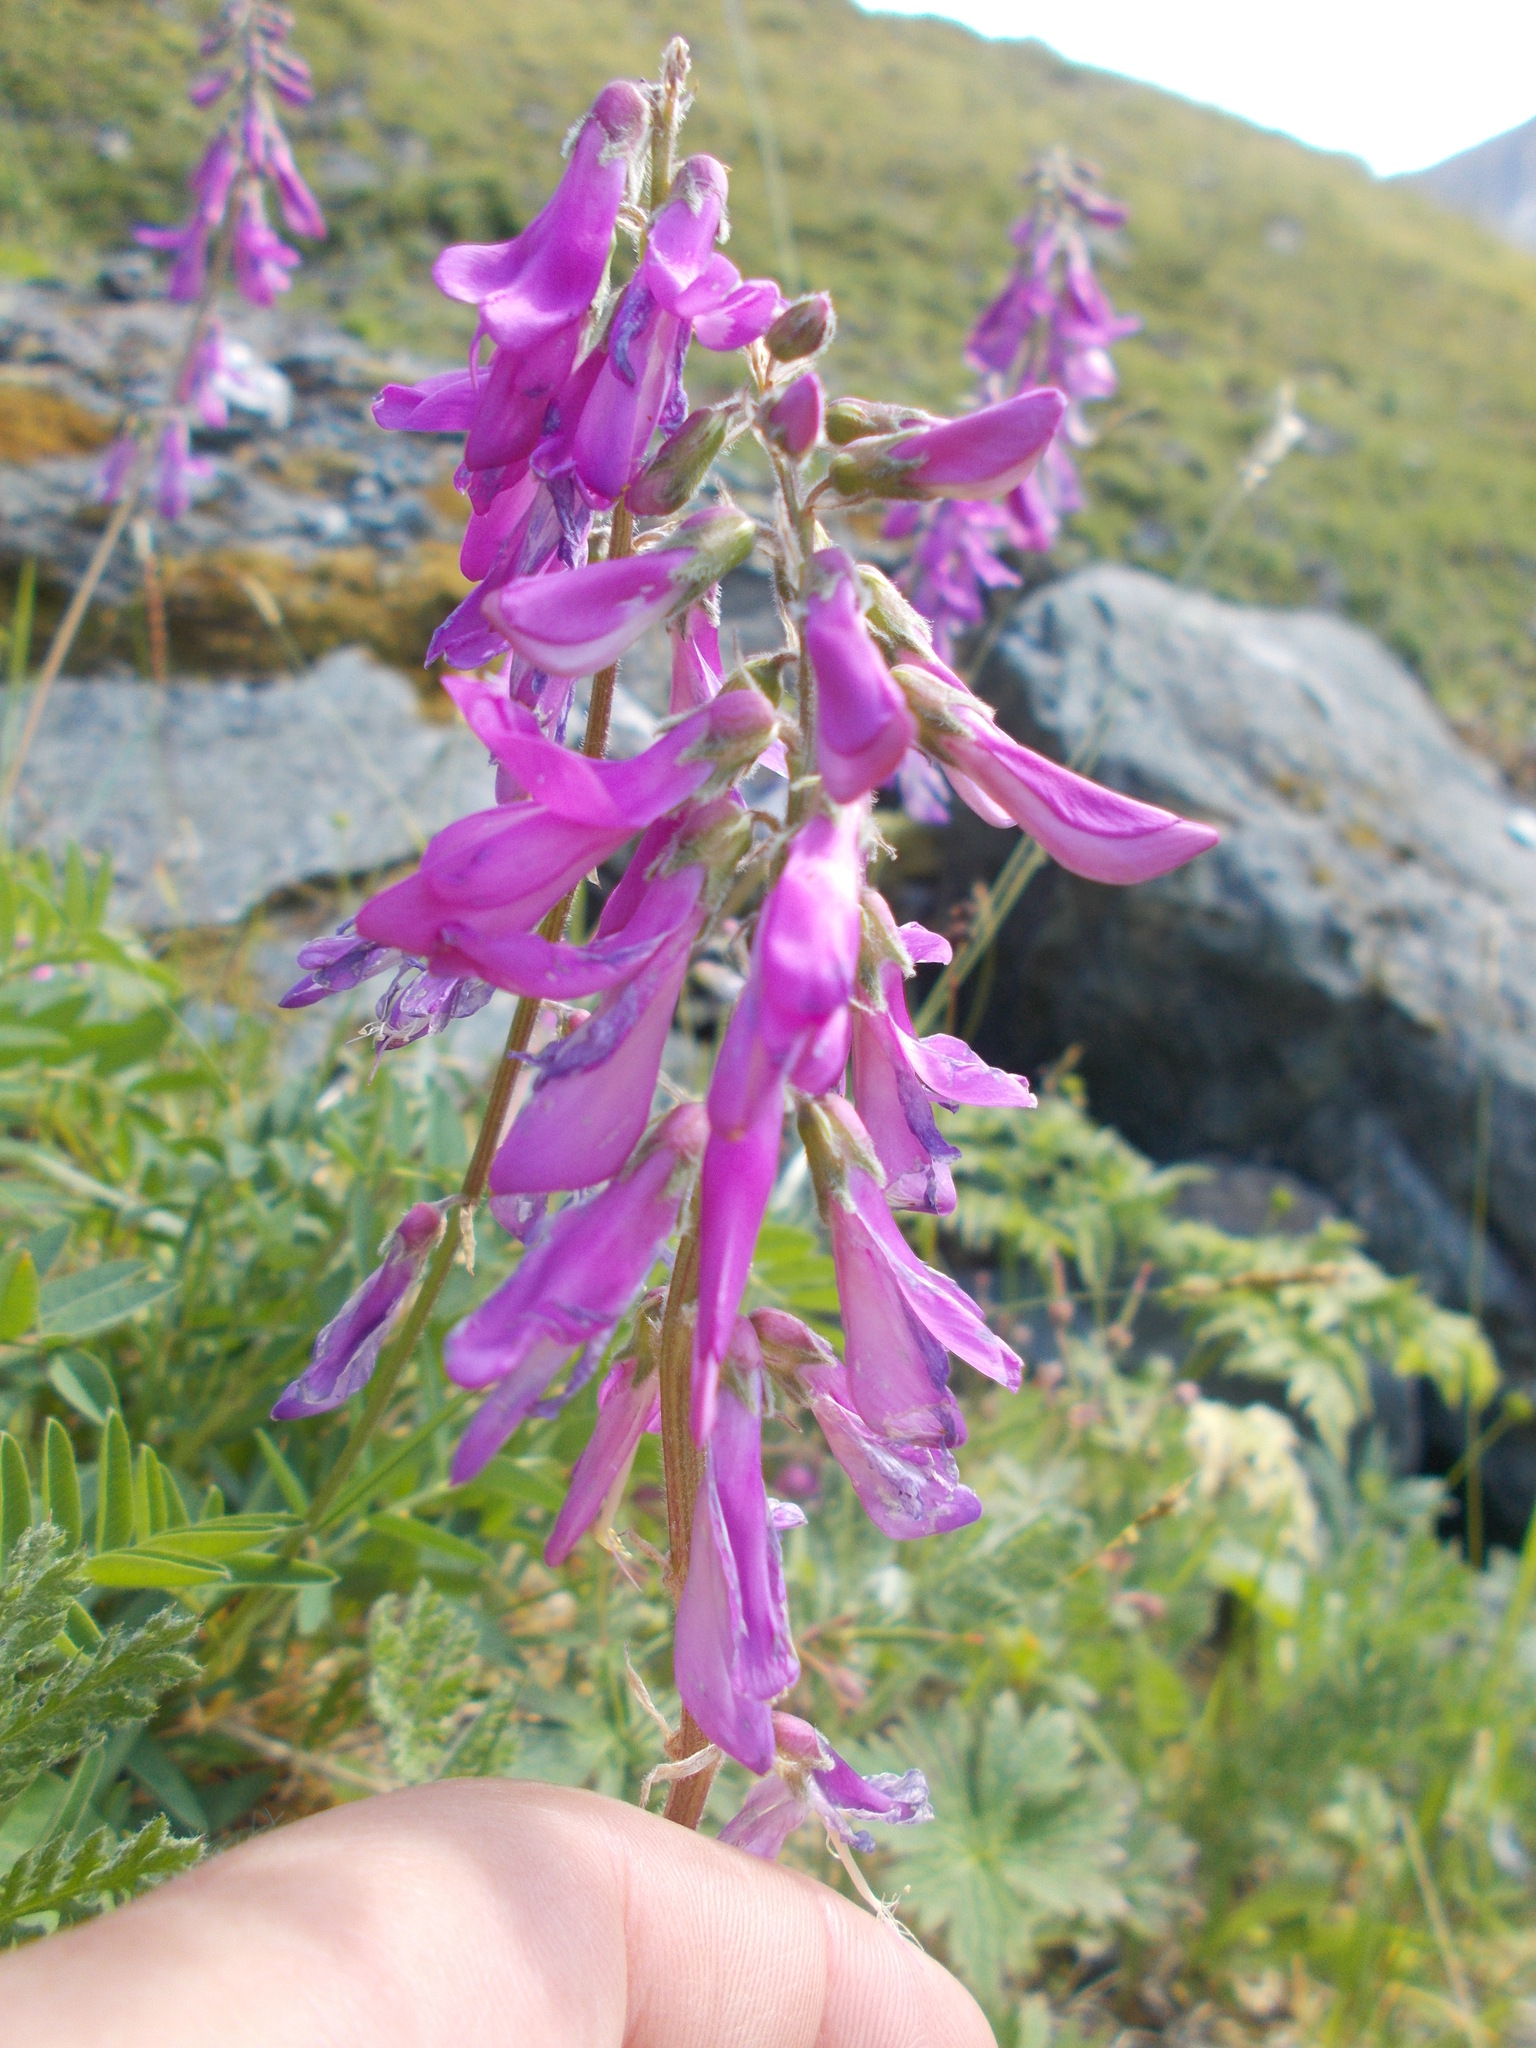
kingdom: Plantae
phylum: Tracheophyta
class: Magnoliopsida
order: Fabales
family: Fabaceae
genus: Hedysarum
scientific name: Hedysarum hedysaroides
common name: Alpine french-honeysuckle
